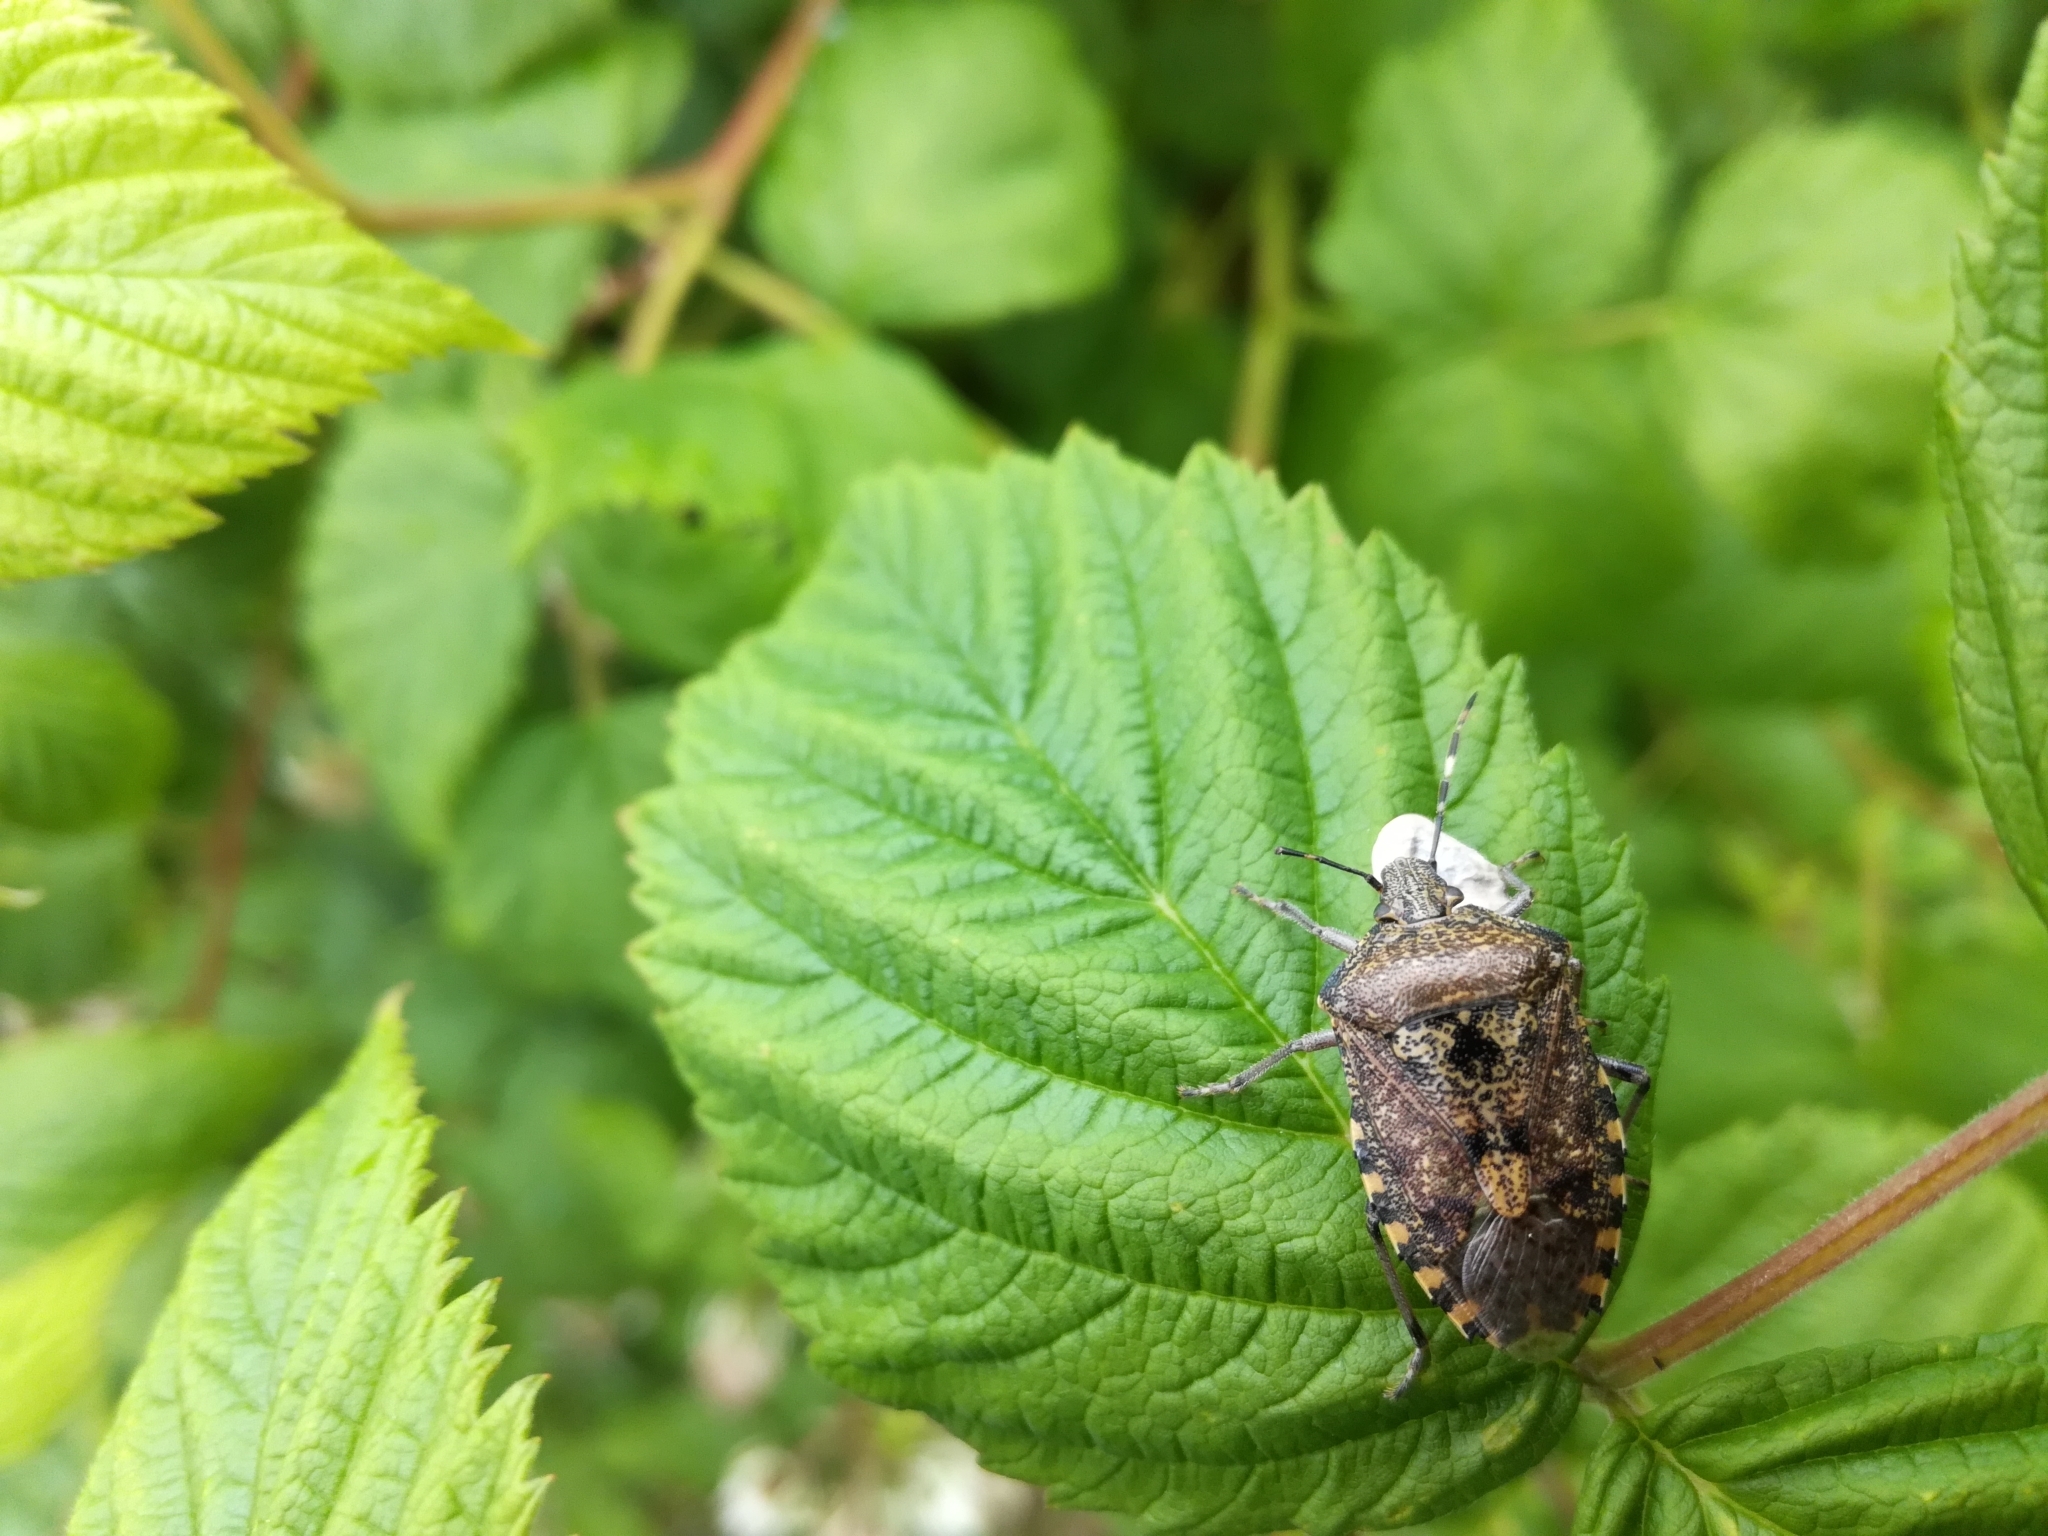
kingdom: Animalia
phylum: Arthropoda
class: Insecta
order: Hemiptera
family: Pentatomidae
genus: Rhaphigaster
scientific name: Rhaphigaster nebulosa
